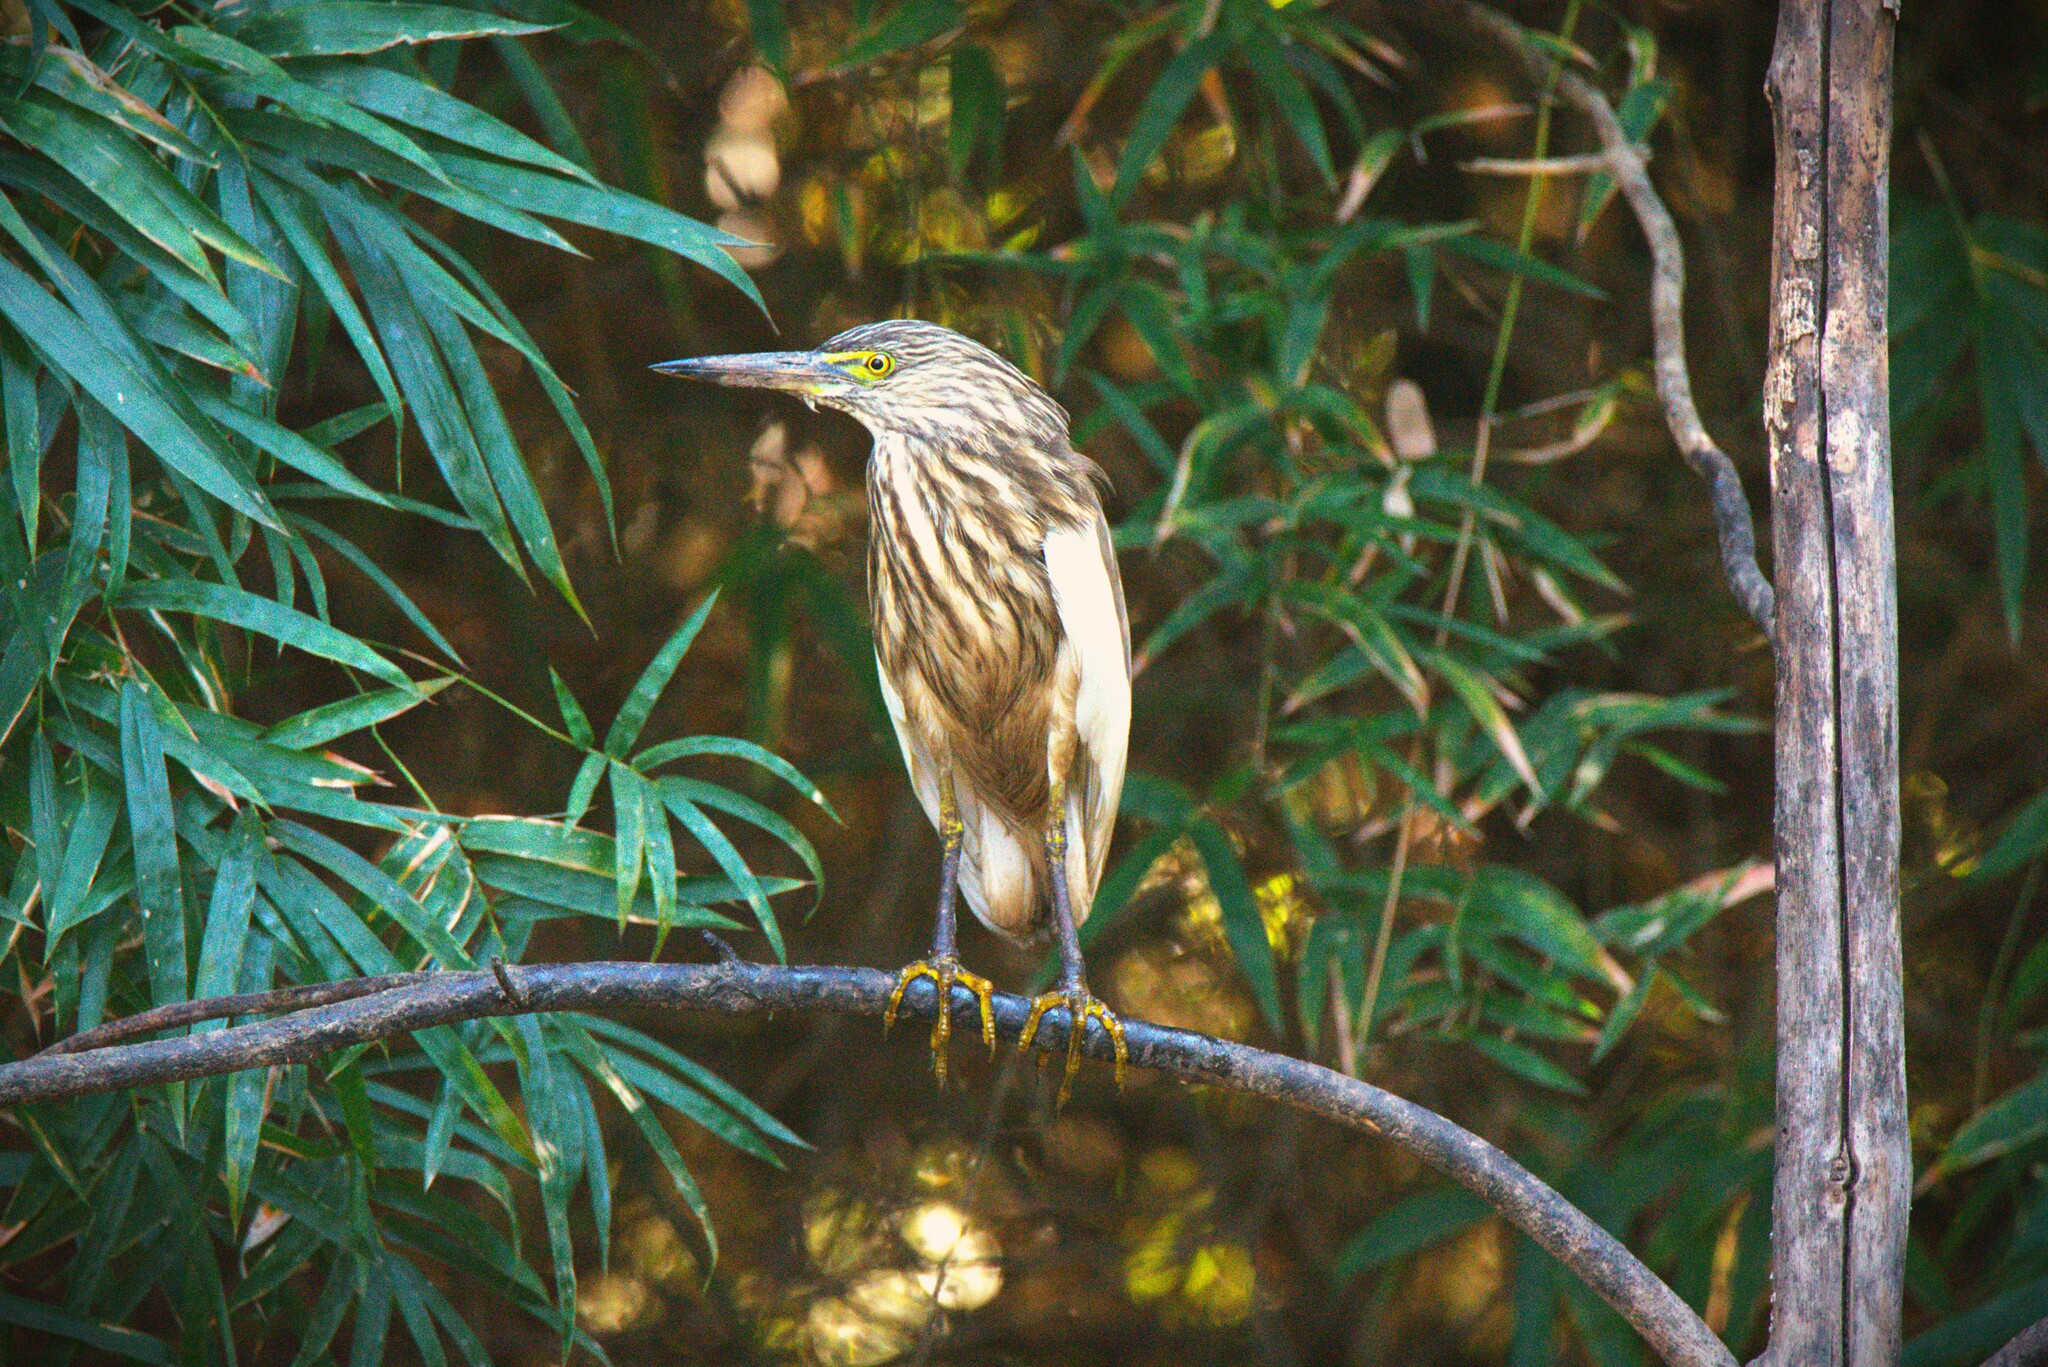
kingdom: Animalia
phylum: Chordata
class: Aves
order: Pelecaniformes
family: Ardeidae
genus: Ardeola
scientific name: Ardeola grayii
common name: Indian pond heron
